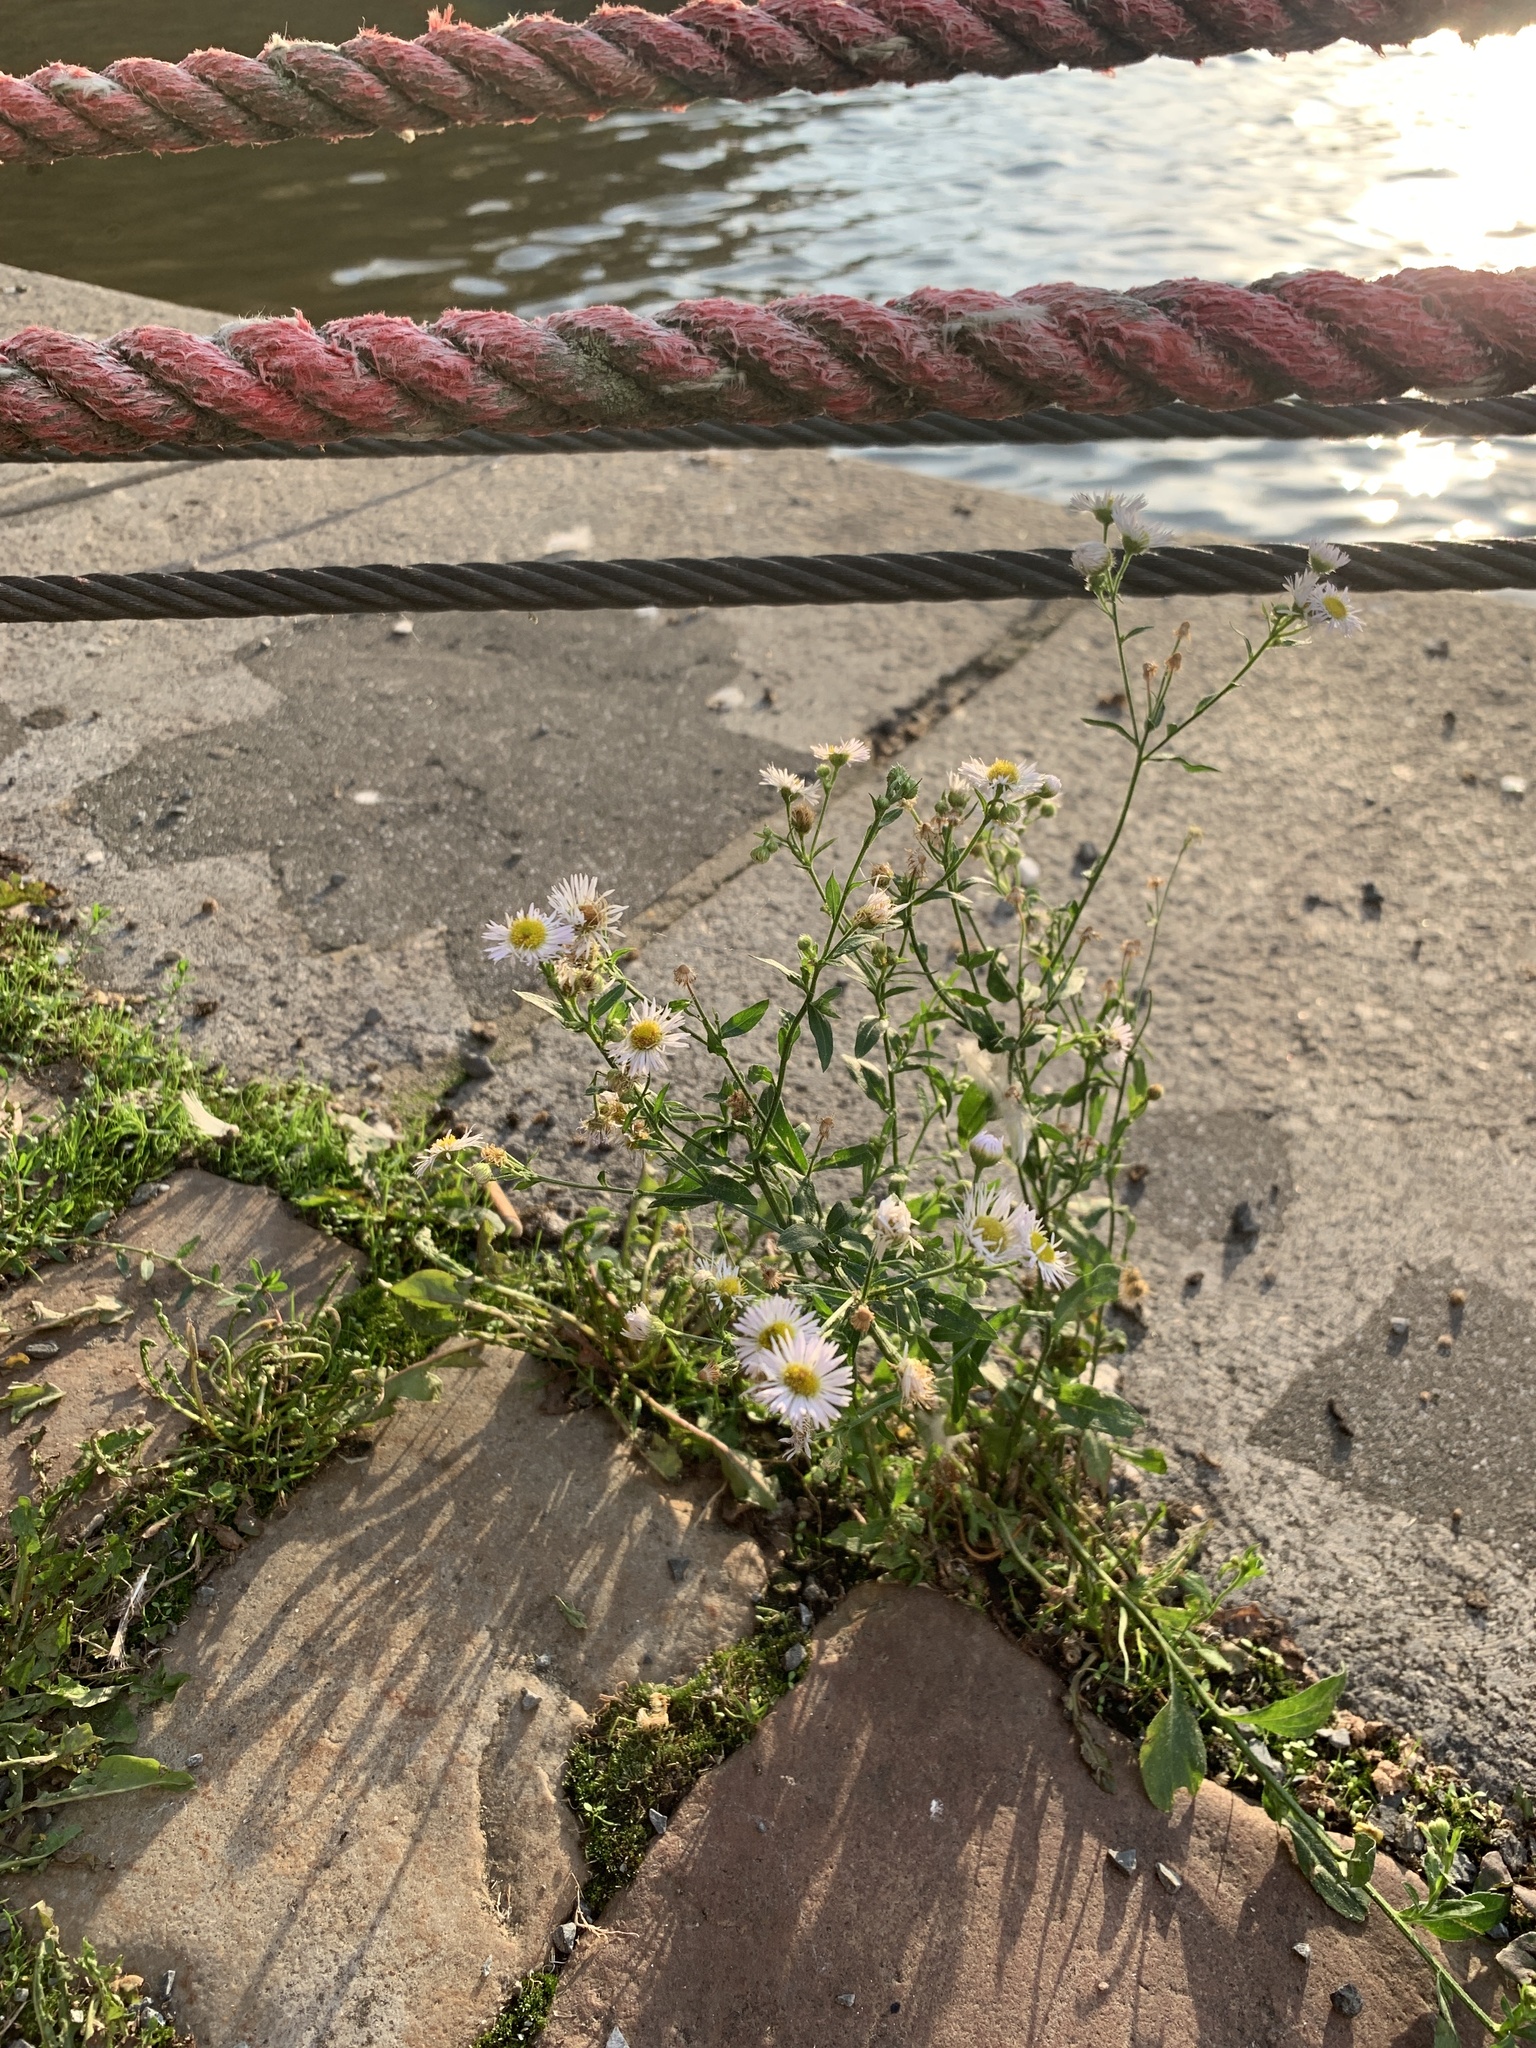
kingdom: Plantae
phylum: Tracheophyta
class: Magnoliopsida
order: Asterales
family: Asteraceae
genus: Erigeron
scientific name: Erigeron annuus
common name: Tall fleabane
